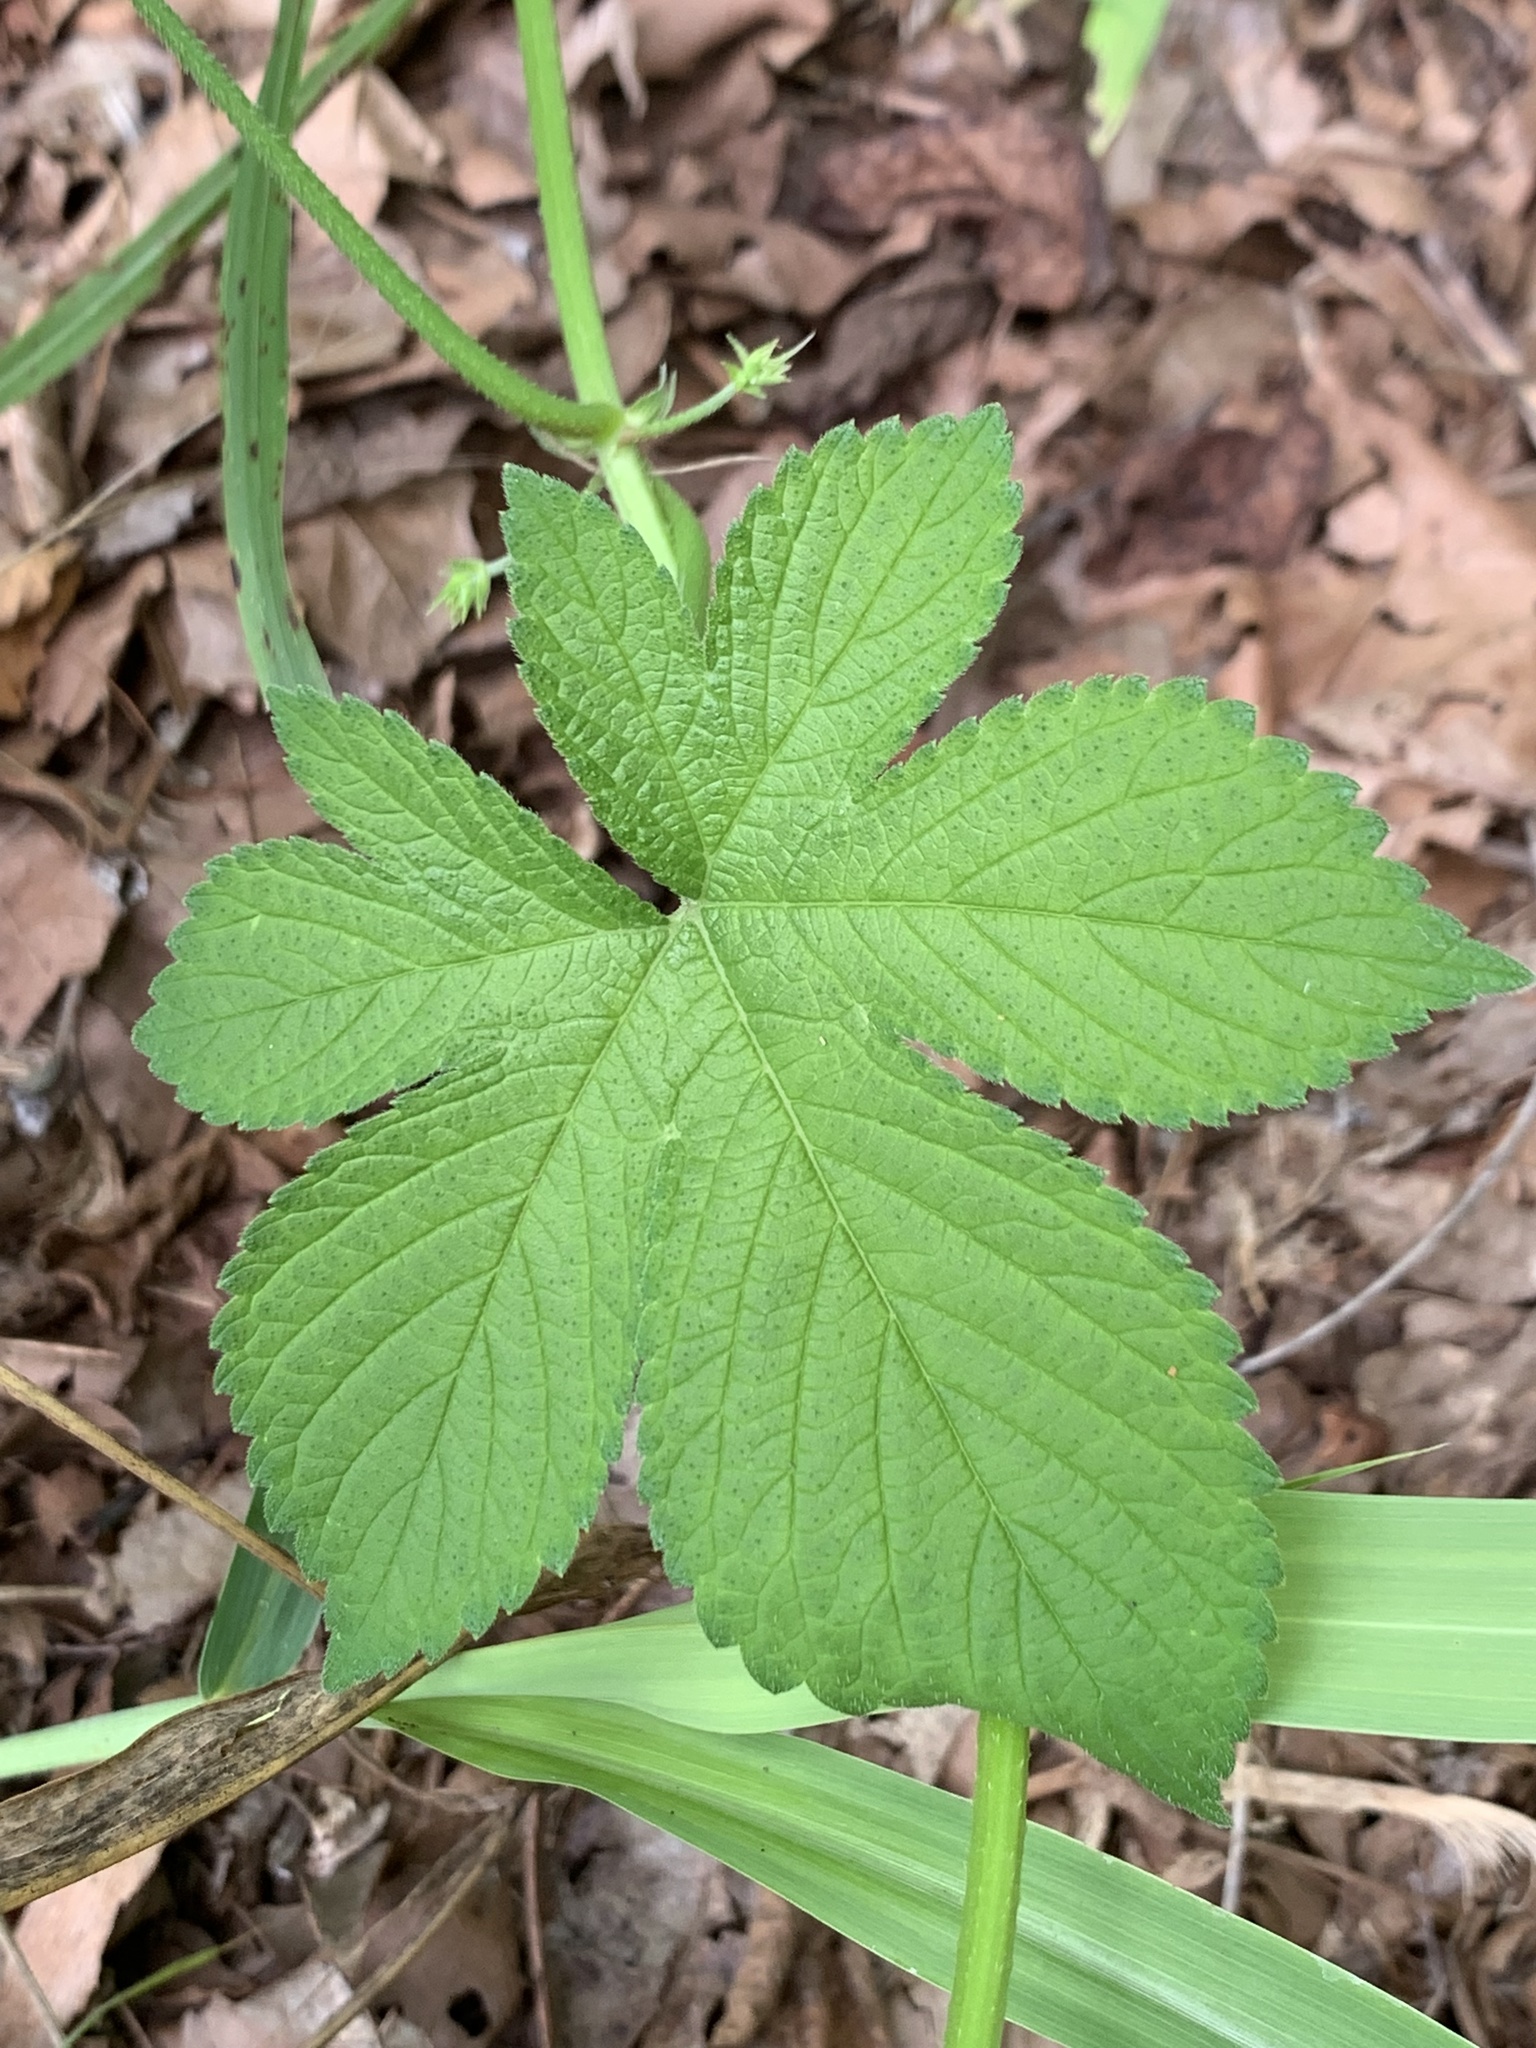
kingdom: Plantae
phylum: Tracheophyta
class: Magnoliopsida
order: Rosales
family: Cannabaceae
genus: Humulus
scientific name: Humulus scandens
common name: Japanese hop
